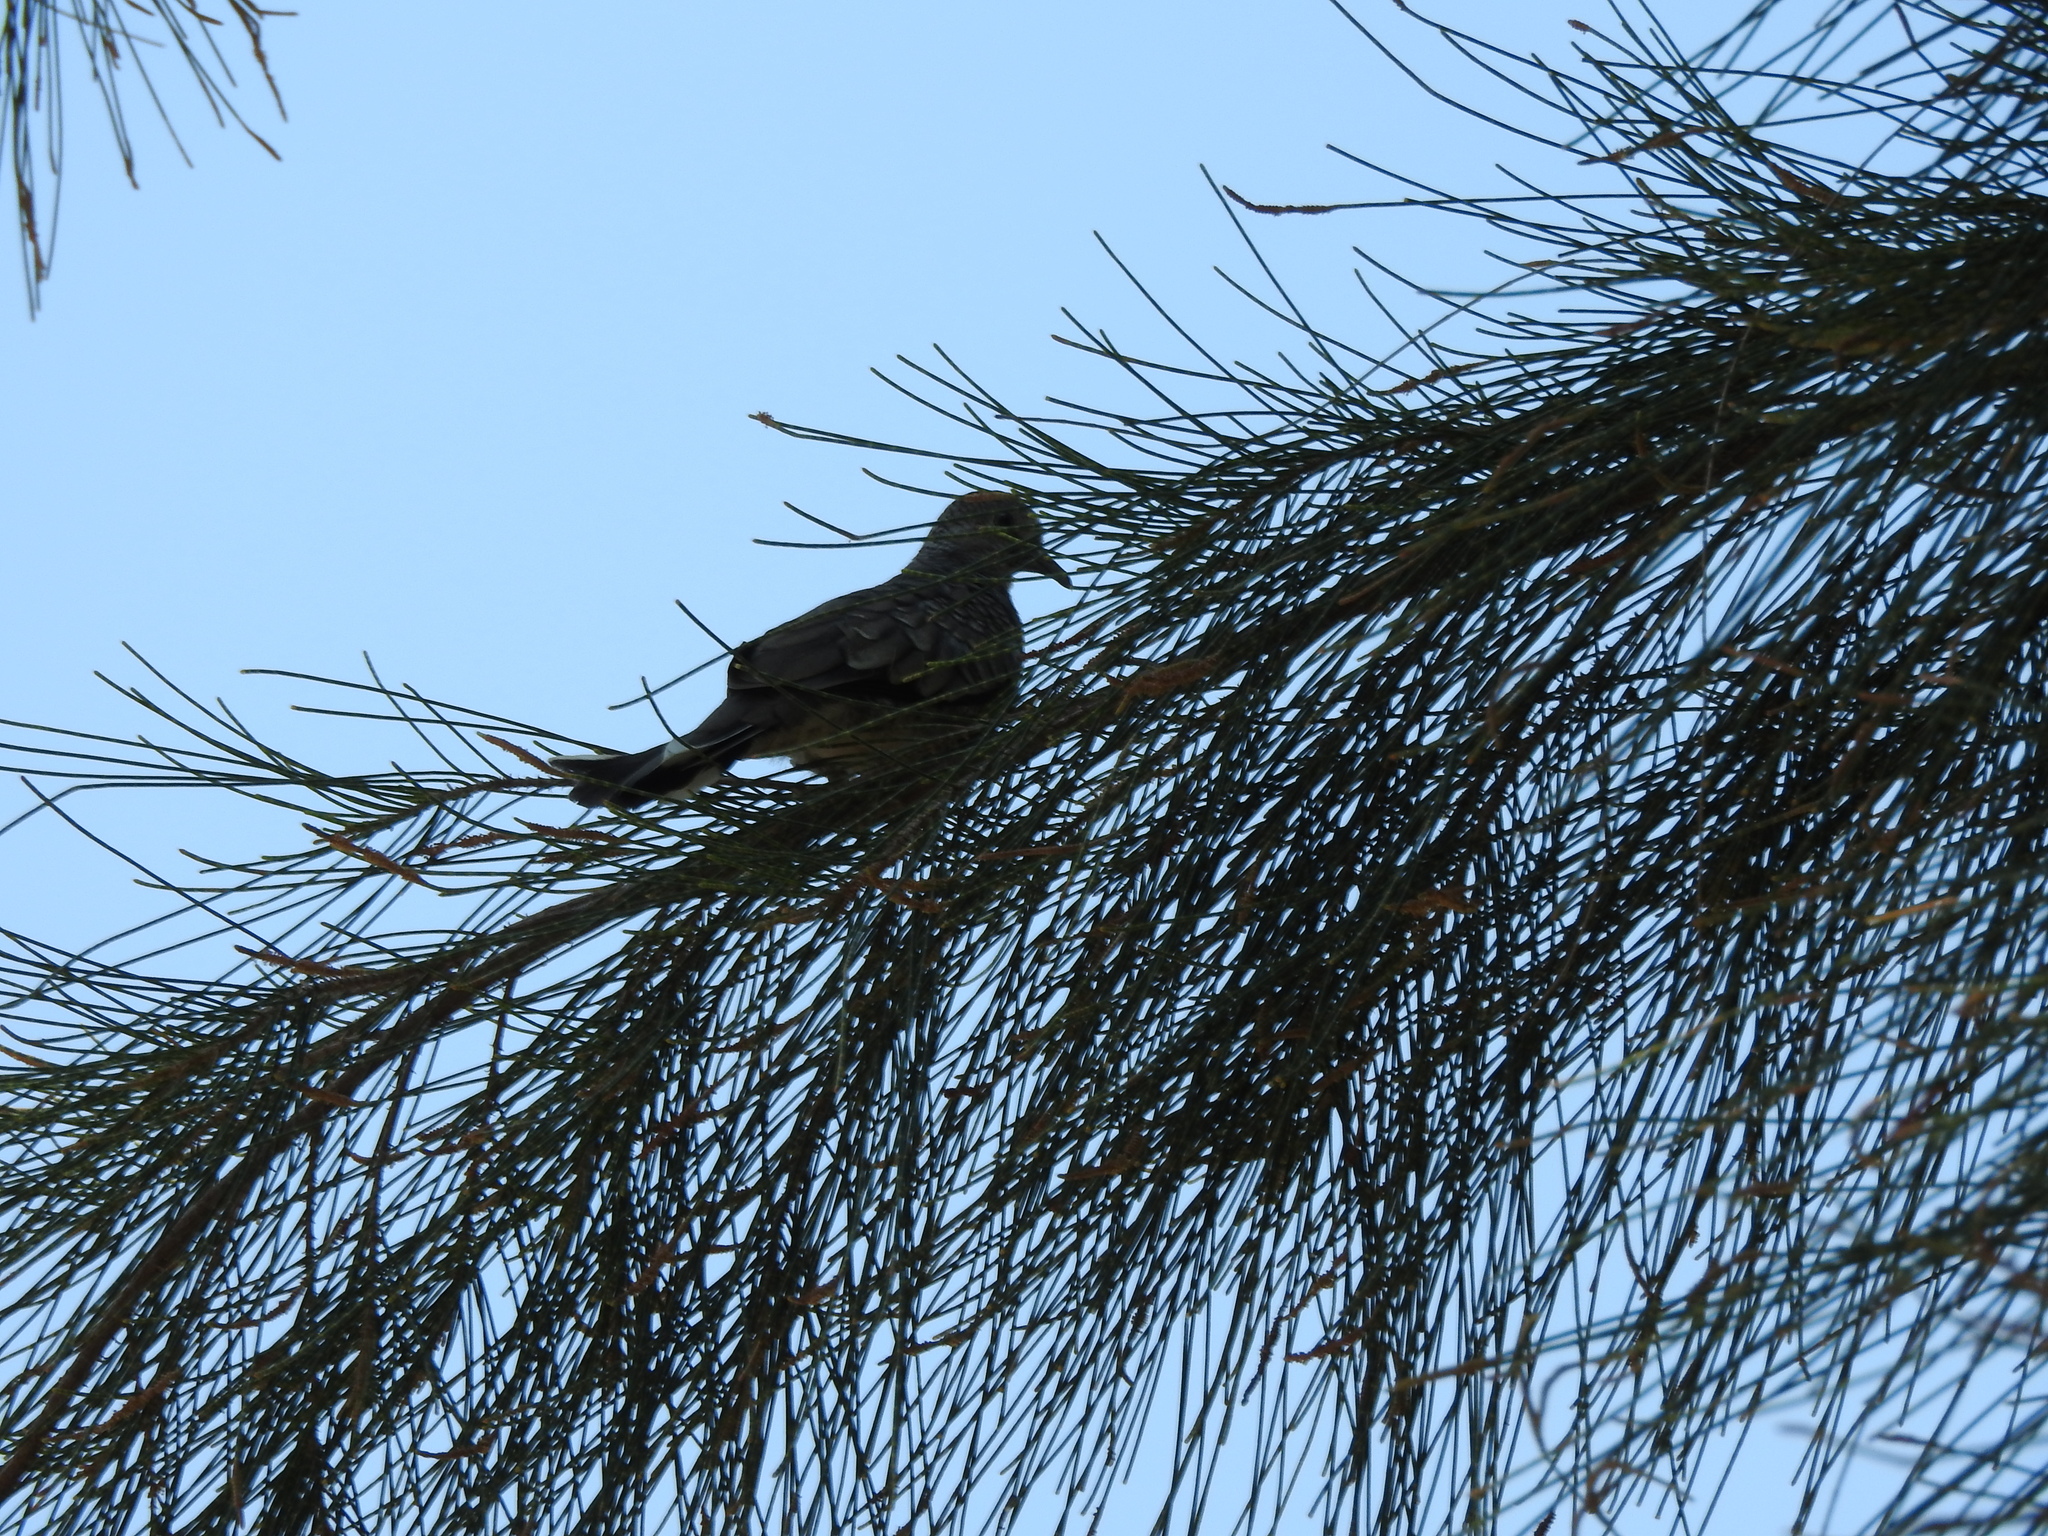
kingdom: Animalia
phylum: Chordata
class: Aves
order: Columbiformes
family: Columbidae
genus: Columbina
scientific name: Columbina inca
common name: Inca dove
